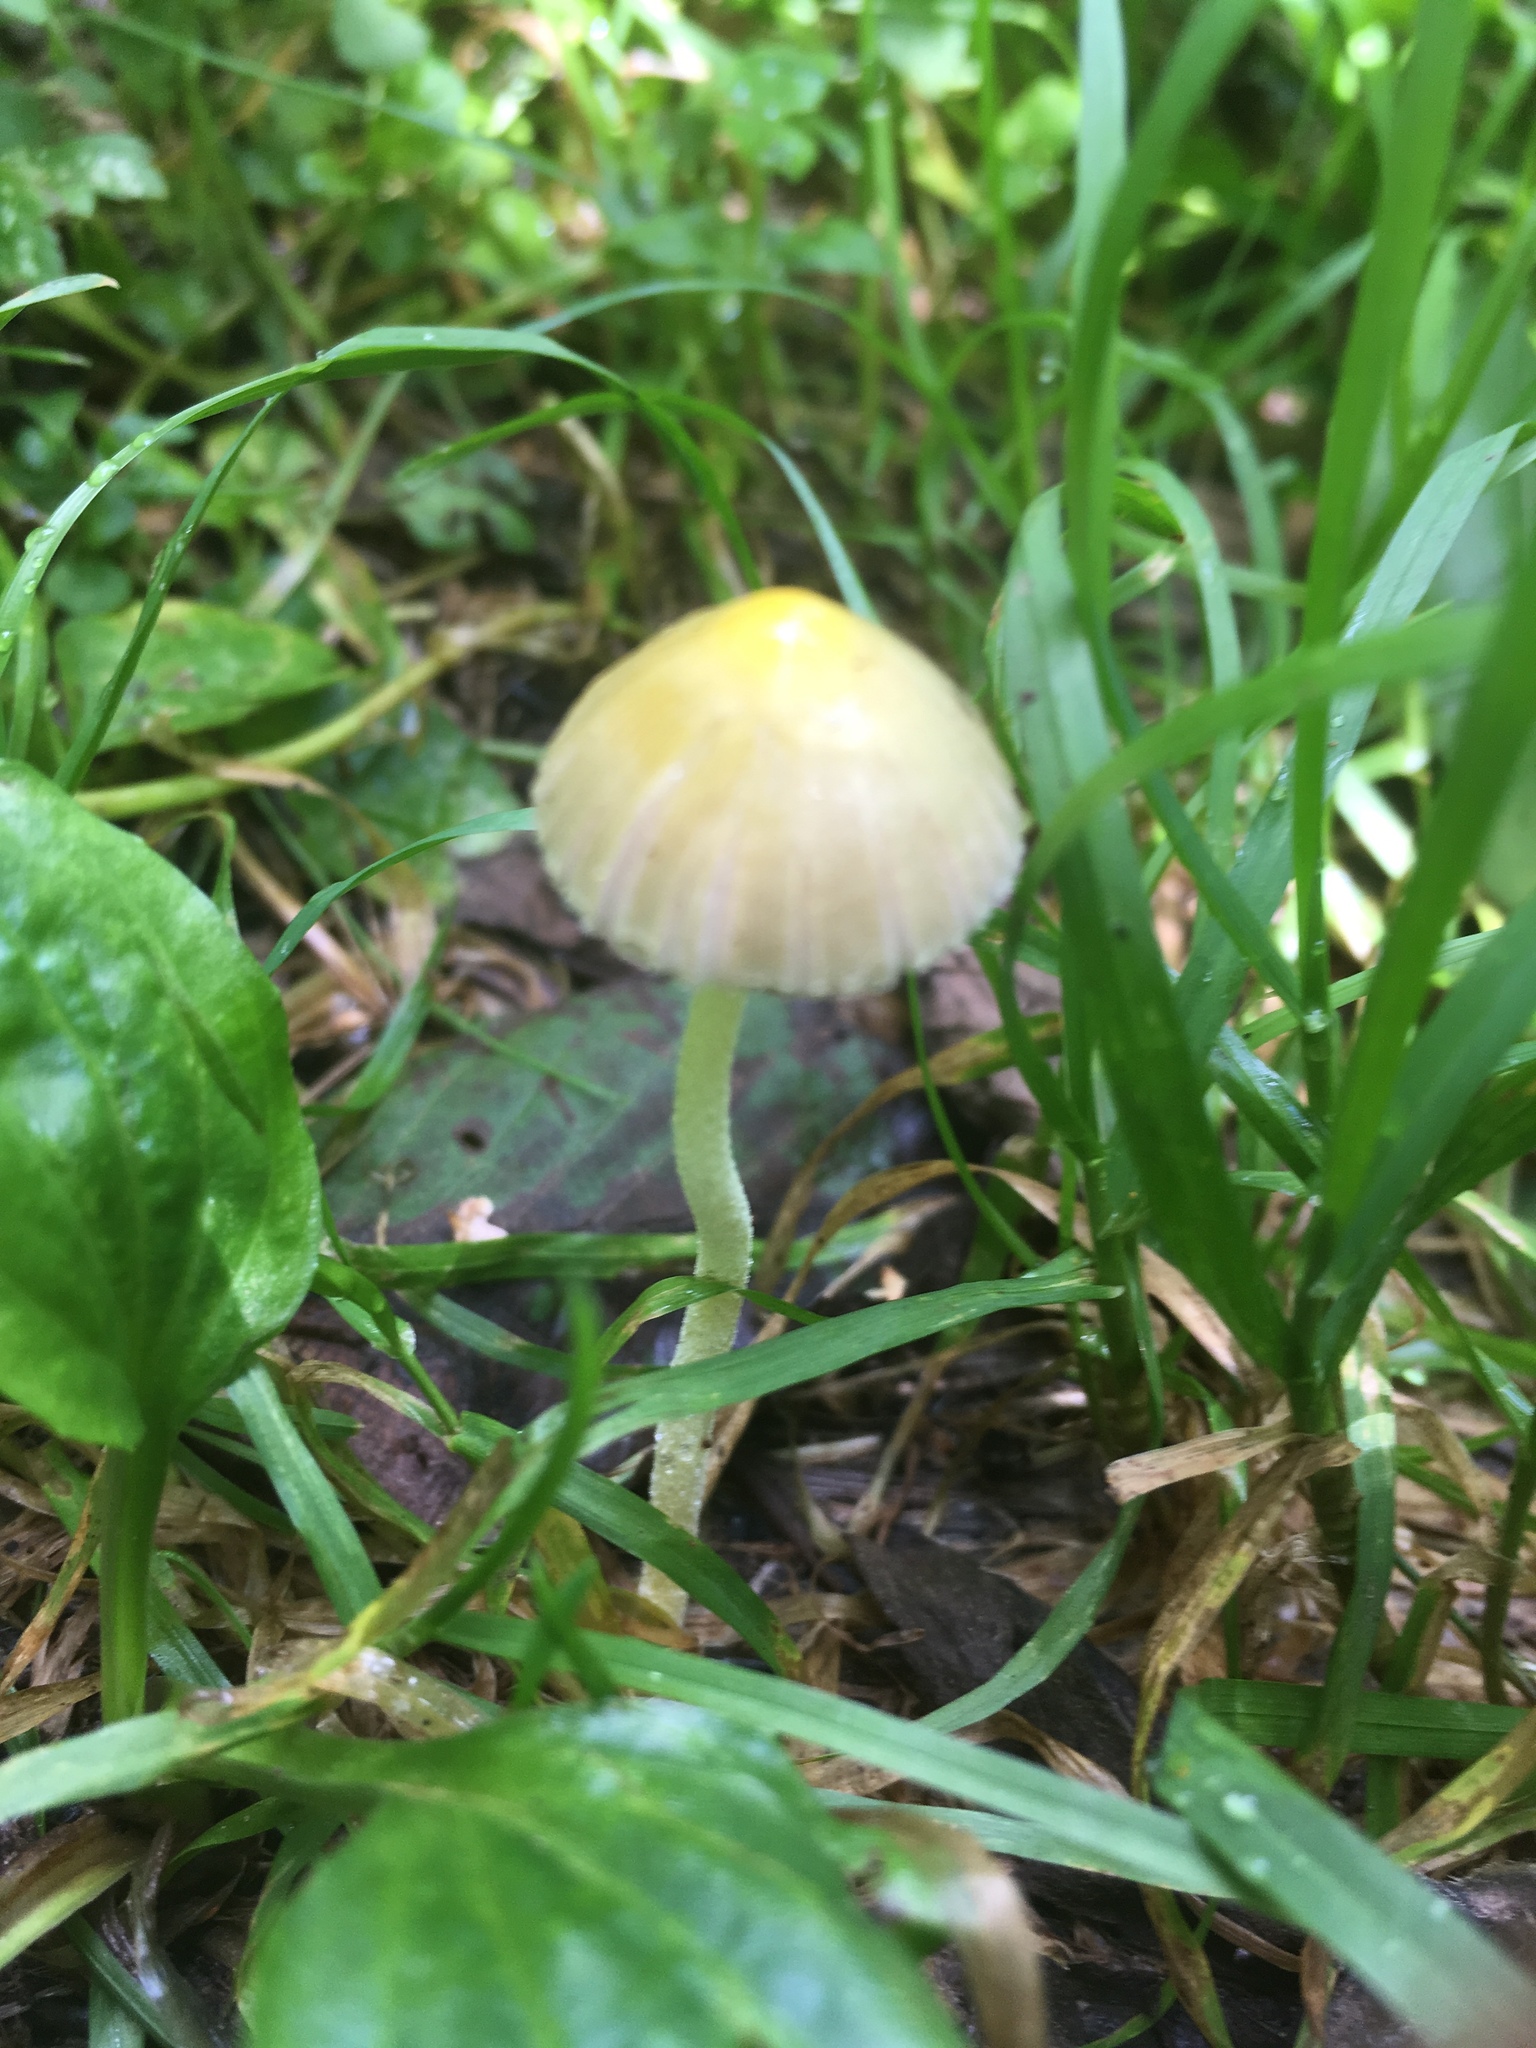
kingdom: Fungi
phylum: Basidiomycota
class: Agaricomycetes
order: Agaricales
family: Bolbitiaceae
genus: Bolbitius
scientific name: Bolbitius titubans
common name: Yellow fieldcap
